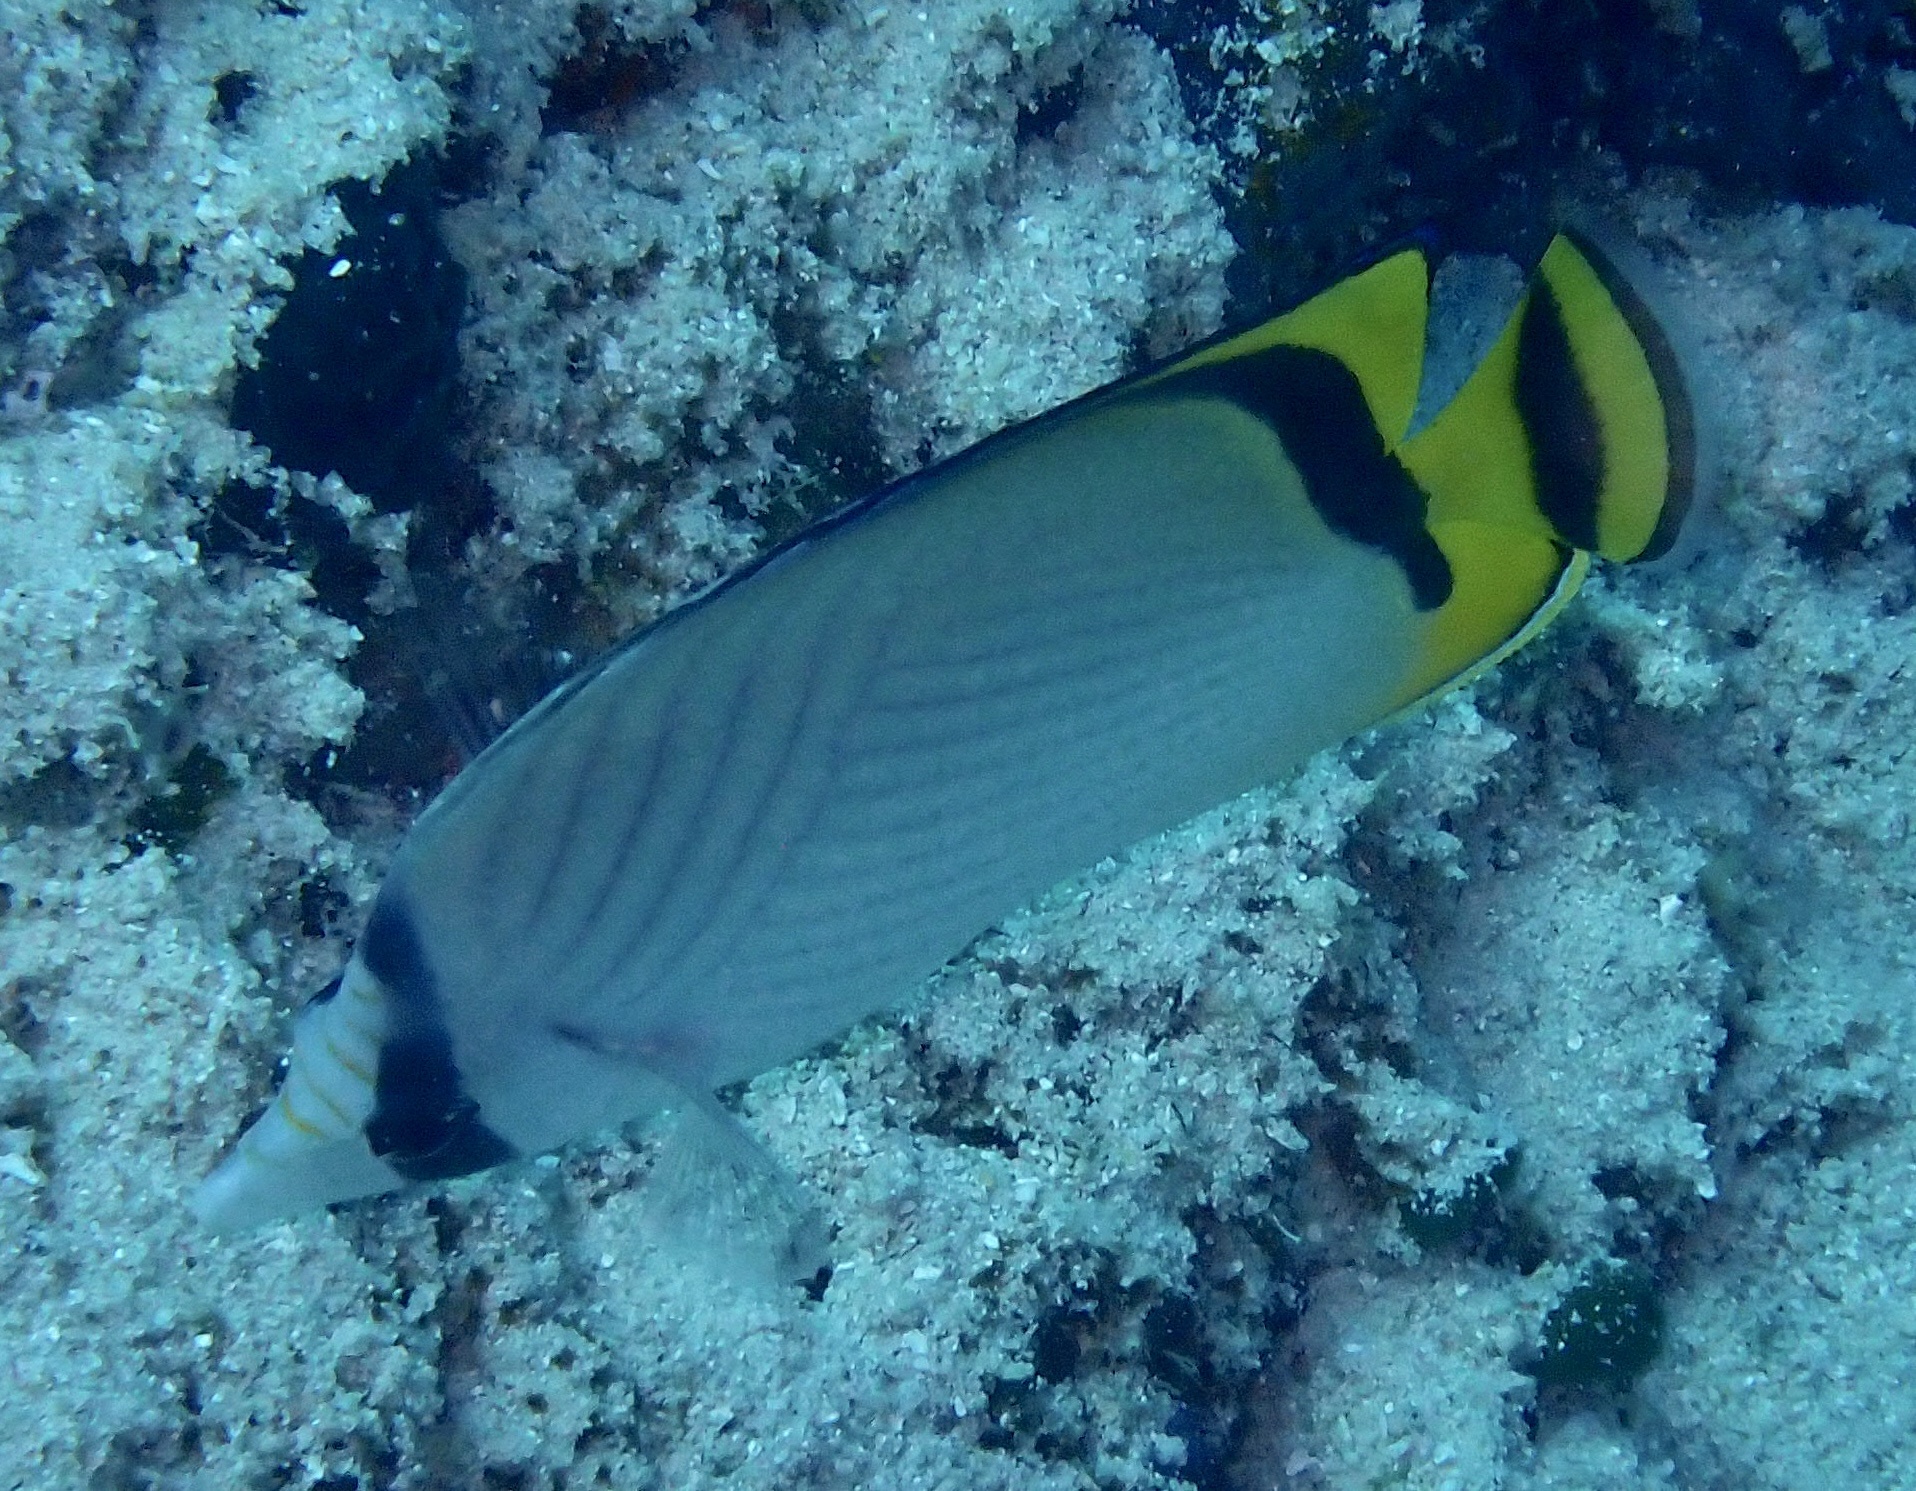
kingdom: Animalia
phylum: Chordata
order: Perciformes
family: Chaetodontidae
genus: Chaetodon
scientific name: Chaetodon vagabundus
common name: Vagabond butterflyfish
